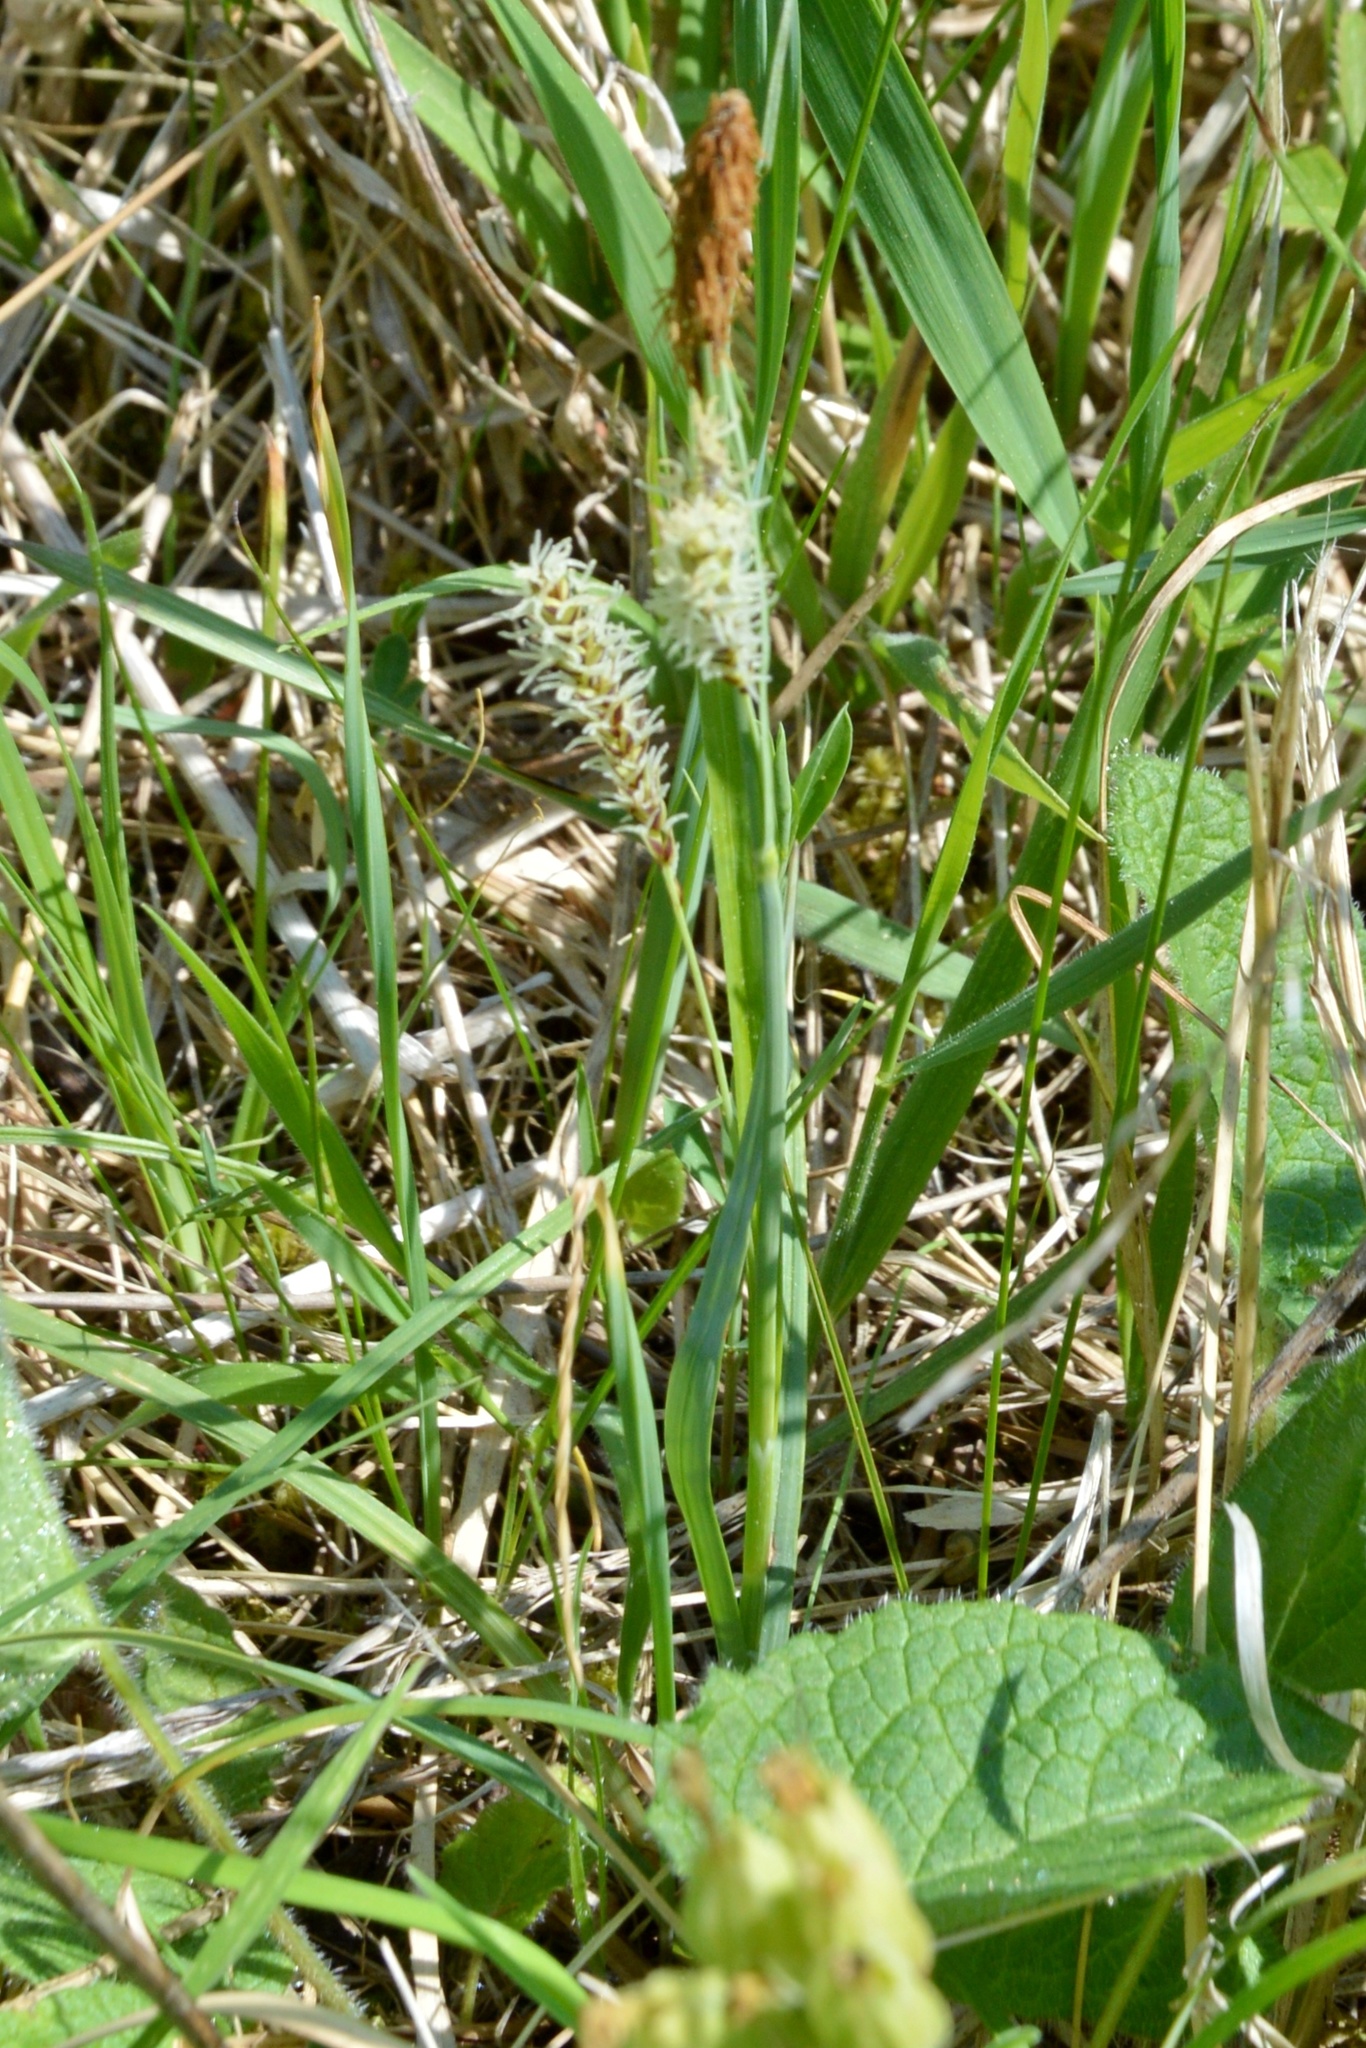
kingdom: Plantae
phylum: Tracheophyta
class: Liliopsida
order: Poales
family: Cyperaceae
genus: Carex
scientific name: Carex flacca
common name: Glaucous sedge
